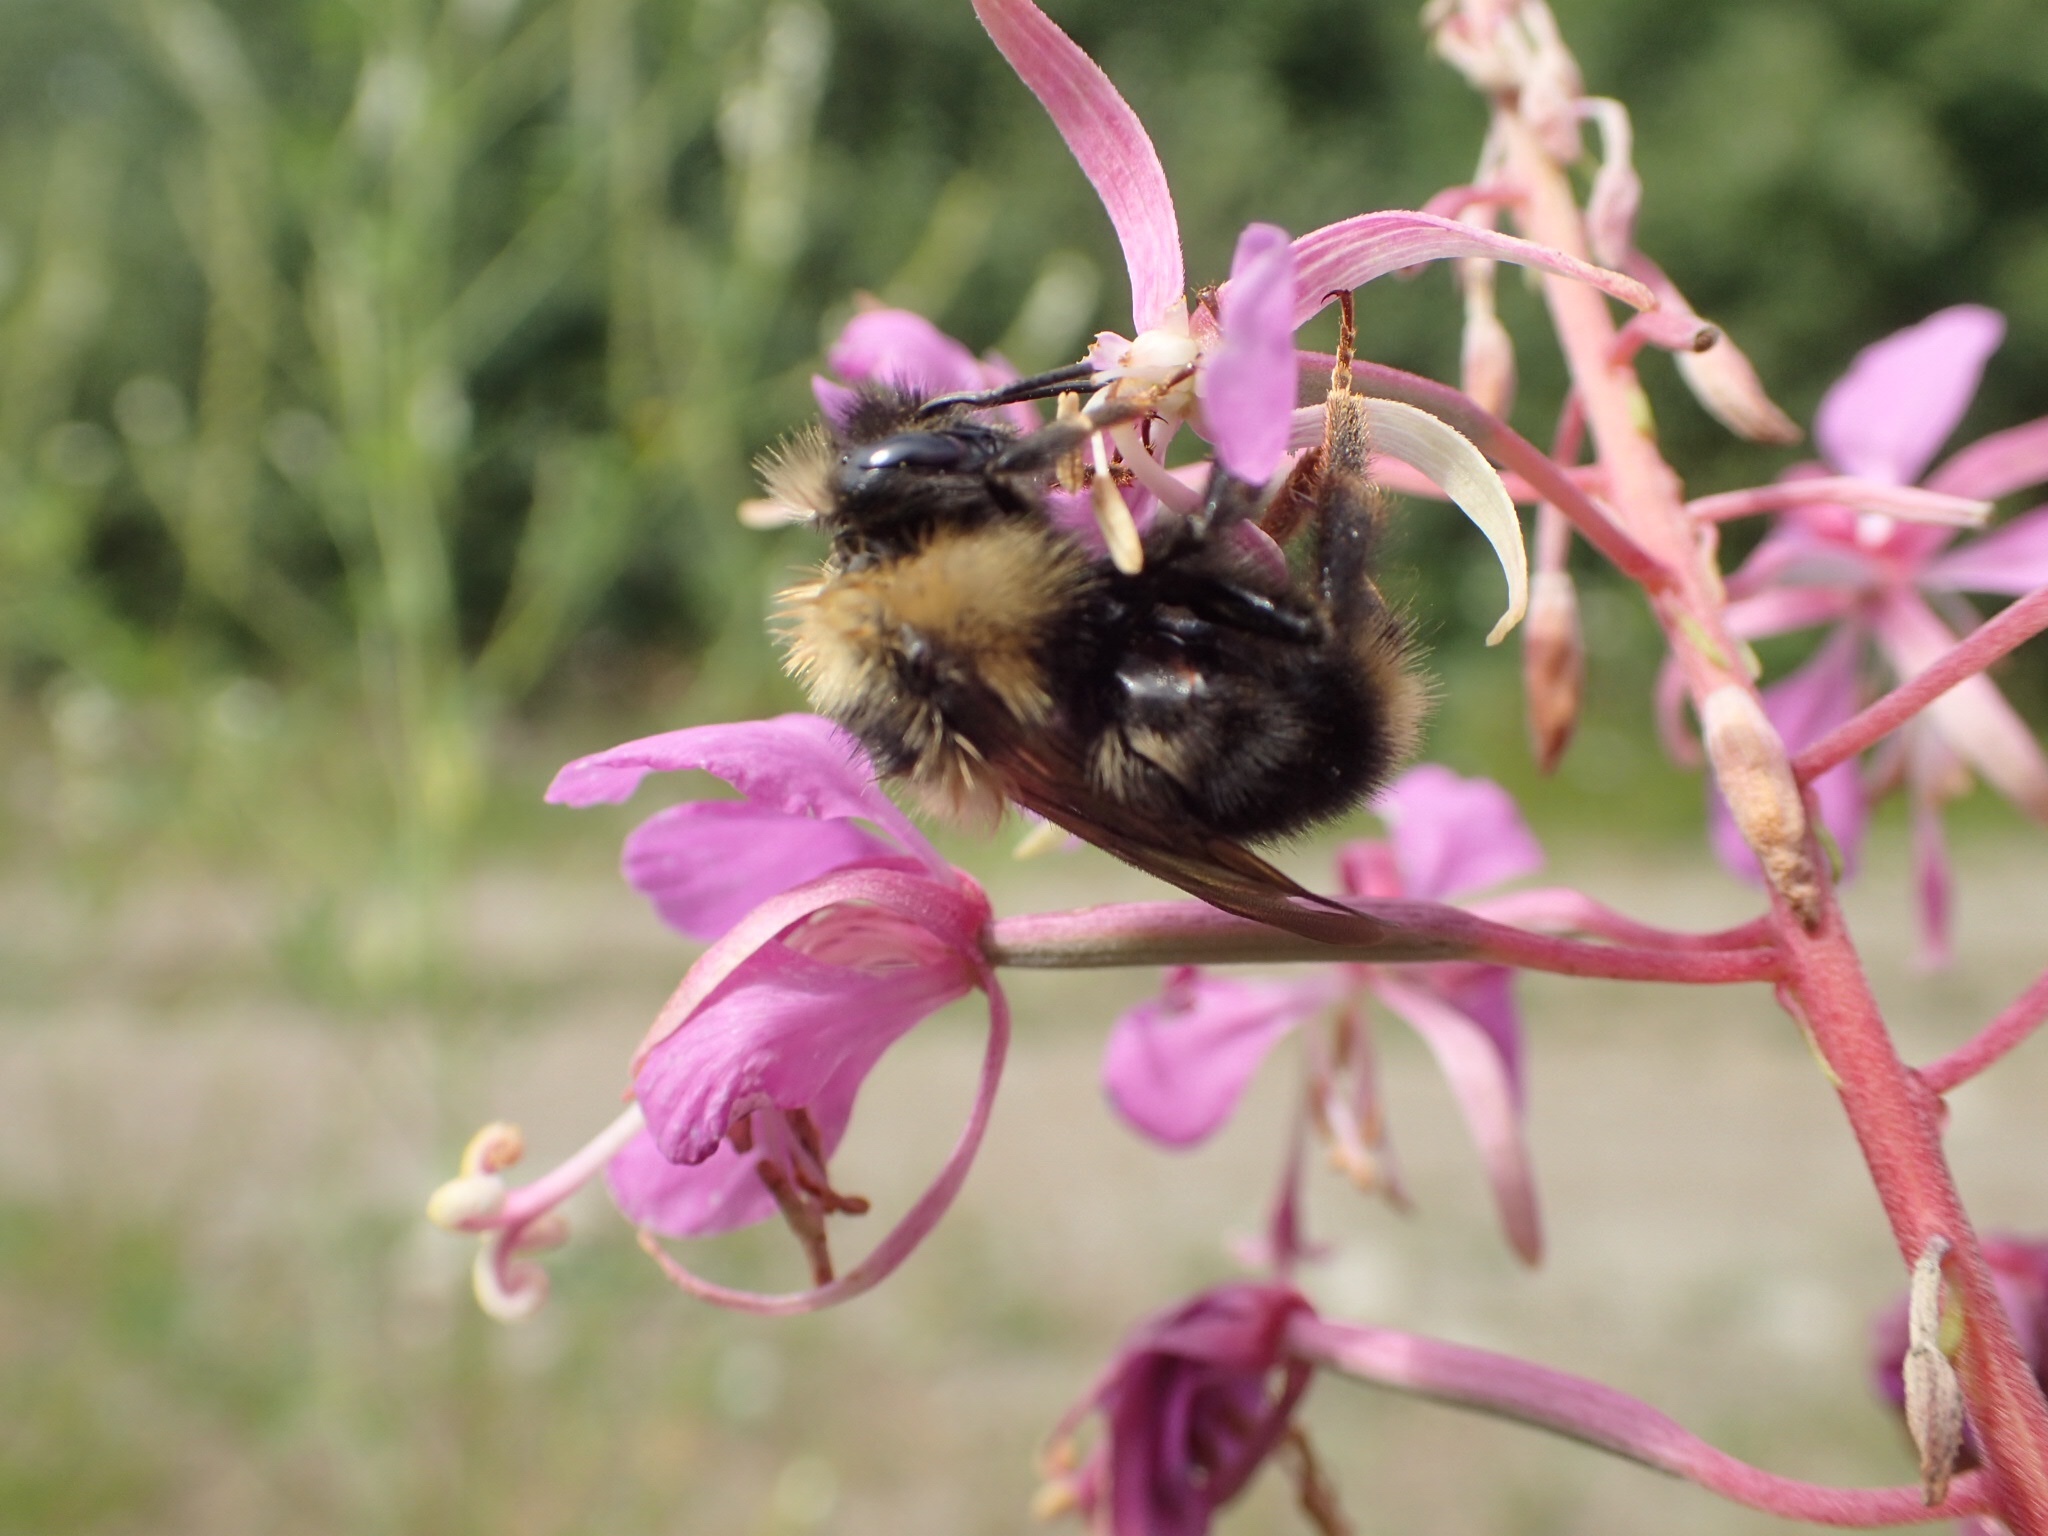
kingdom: Animalia
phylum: Arthropoda
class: Insecta
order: Hymenoptera
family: Apidae
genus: Bombus
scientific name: Bombus flavidus
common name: Fernald cuckoo bumble bee
